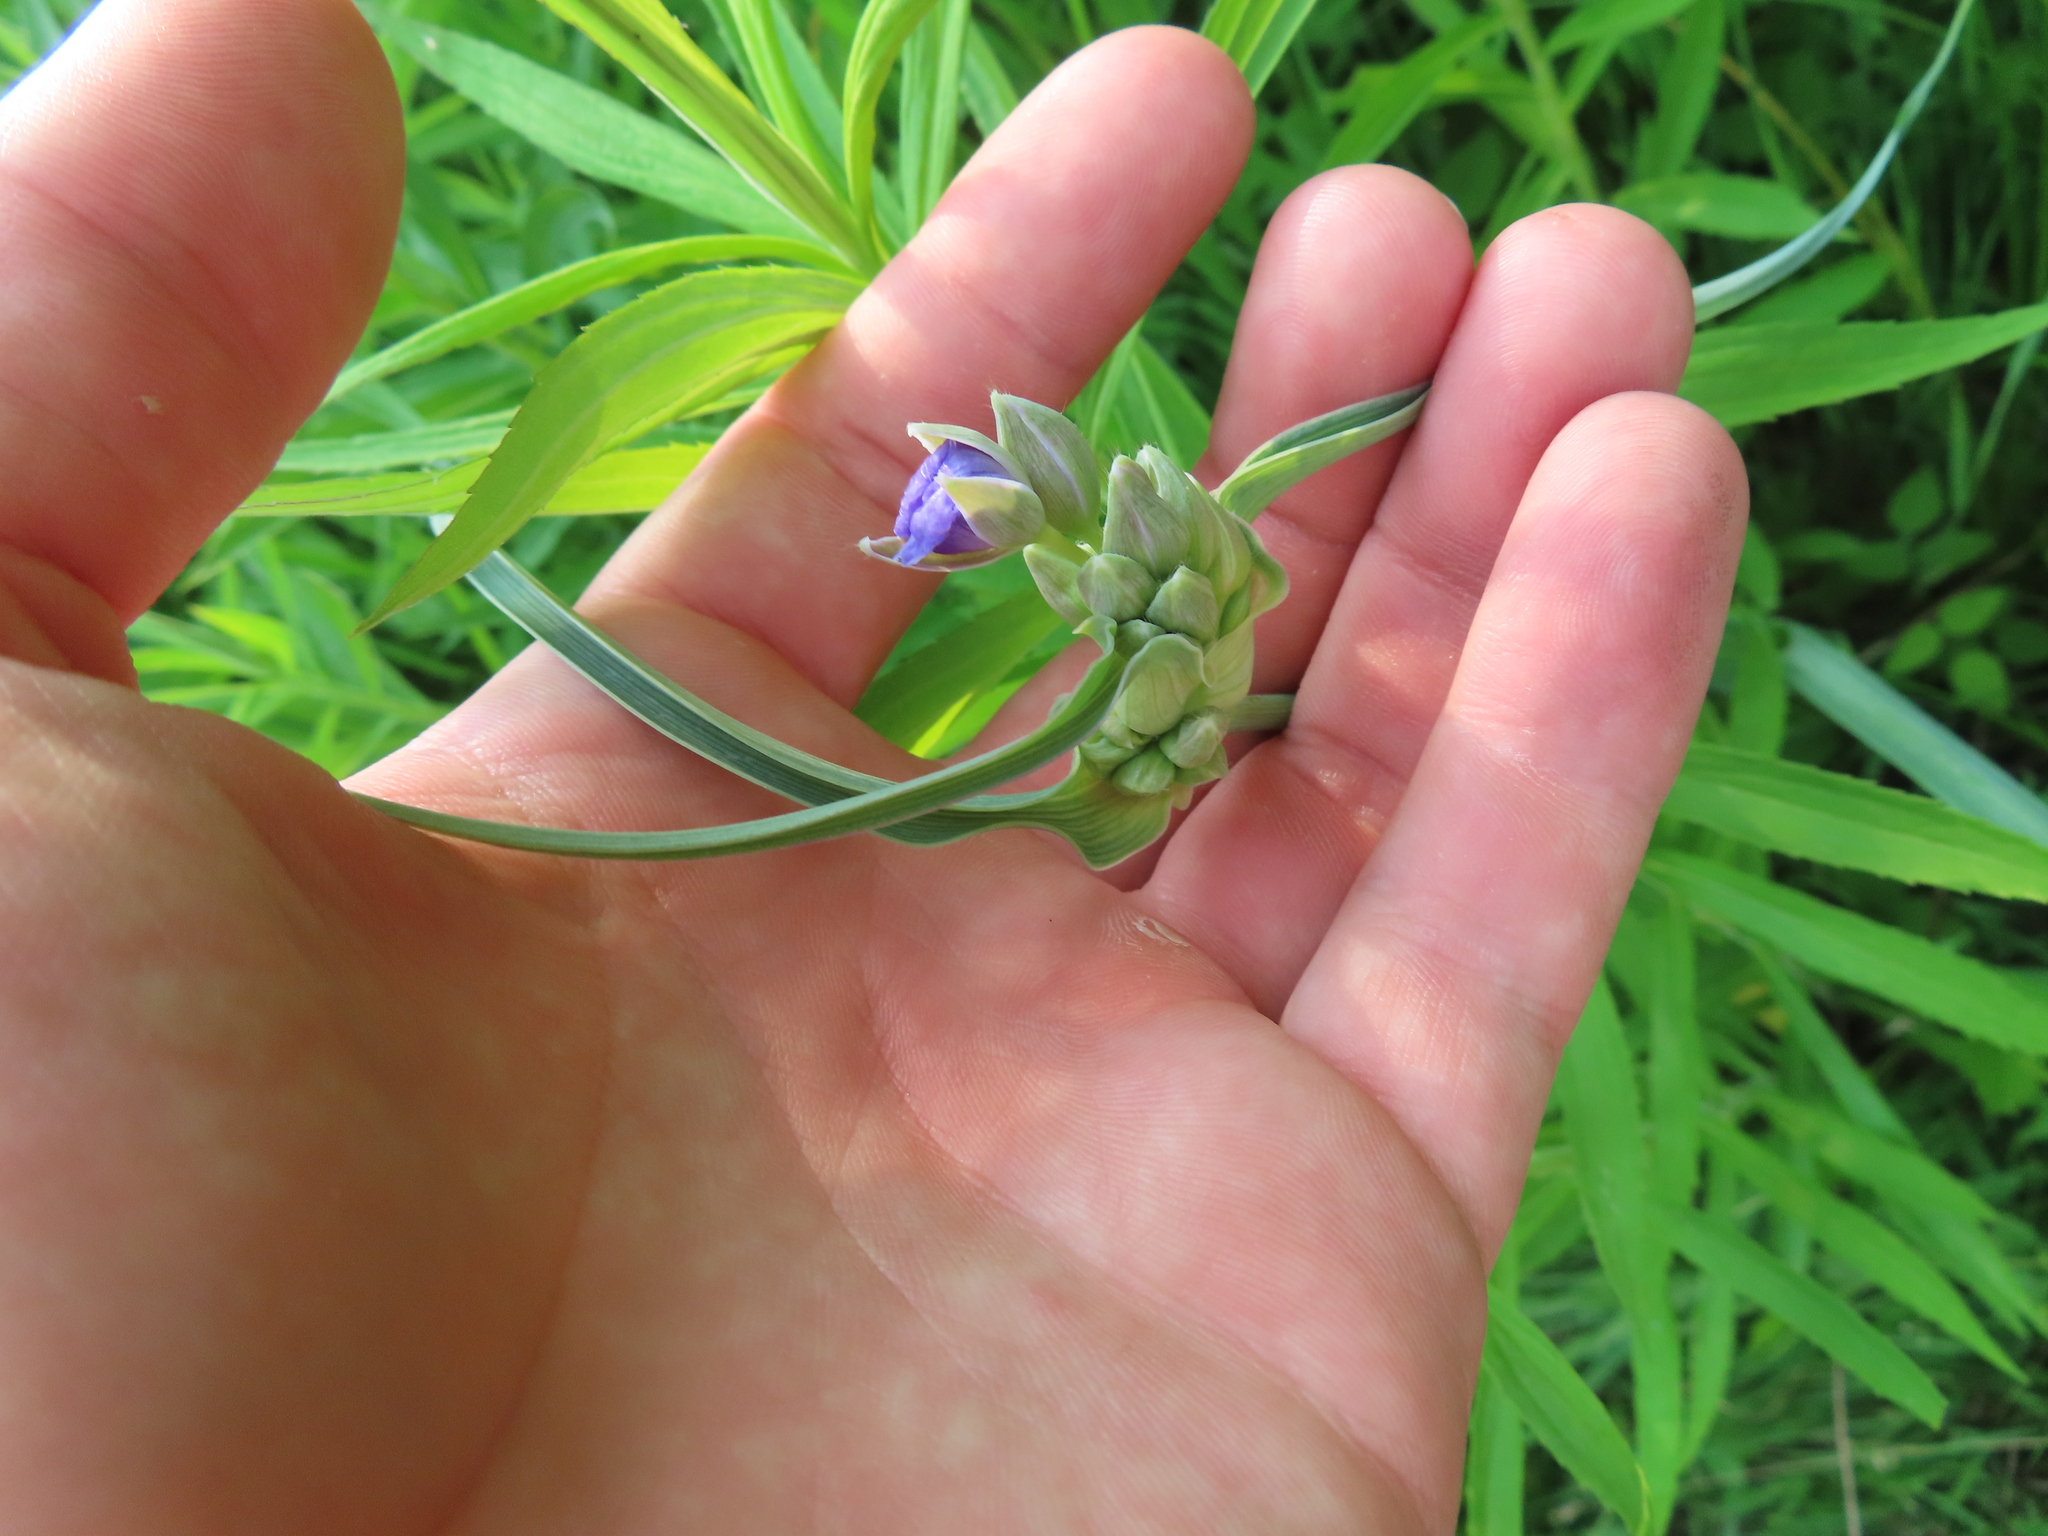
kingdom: Plantae
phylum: Tracheophyta
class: Liliopsida
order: Commelinales
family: Commelinaceae
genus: Tradescantia
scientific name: Tradescantia ohiensis
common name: Ohio spiderwort
